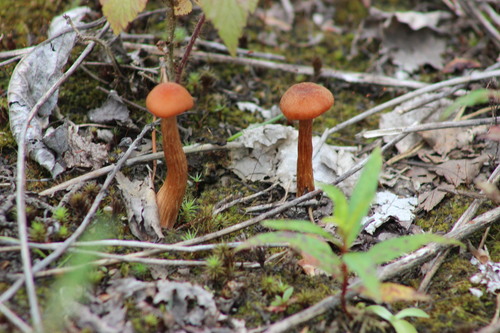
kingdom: Fungi
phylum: Basidiomycota
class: Agaricomycetes
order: Agaricales
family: Hydnangiaceae
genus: Laccaria
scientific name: Laccaria proxima
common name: Scurfy deceiver
